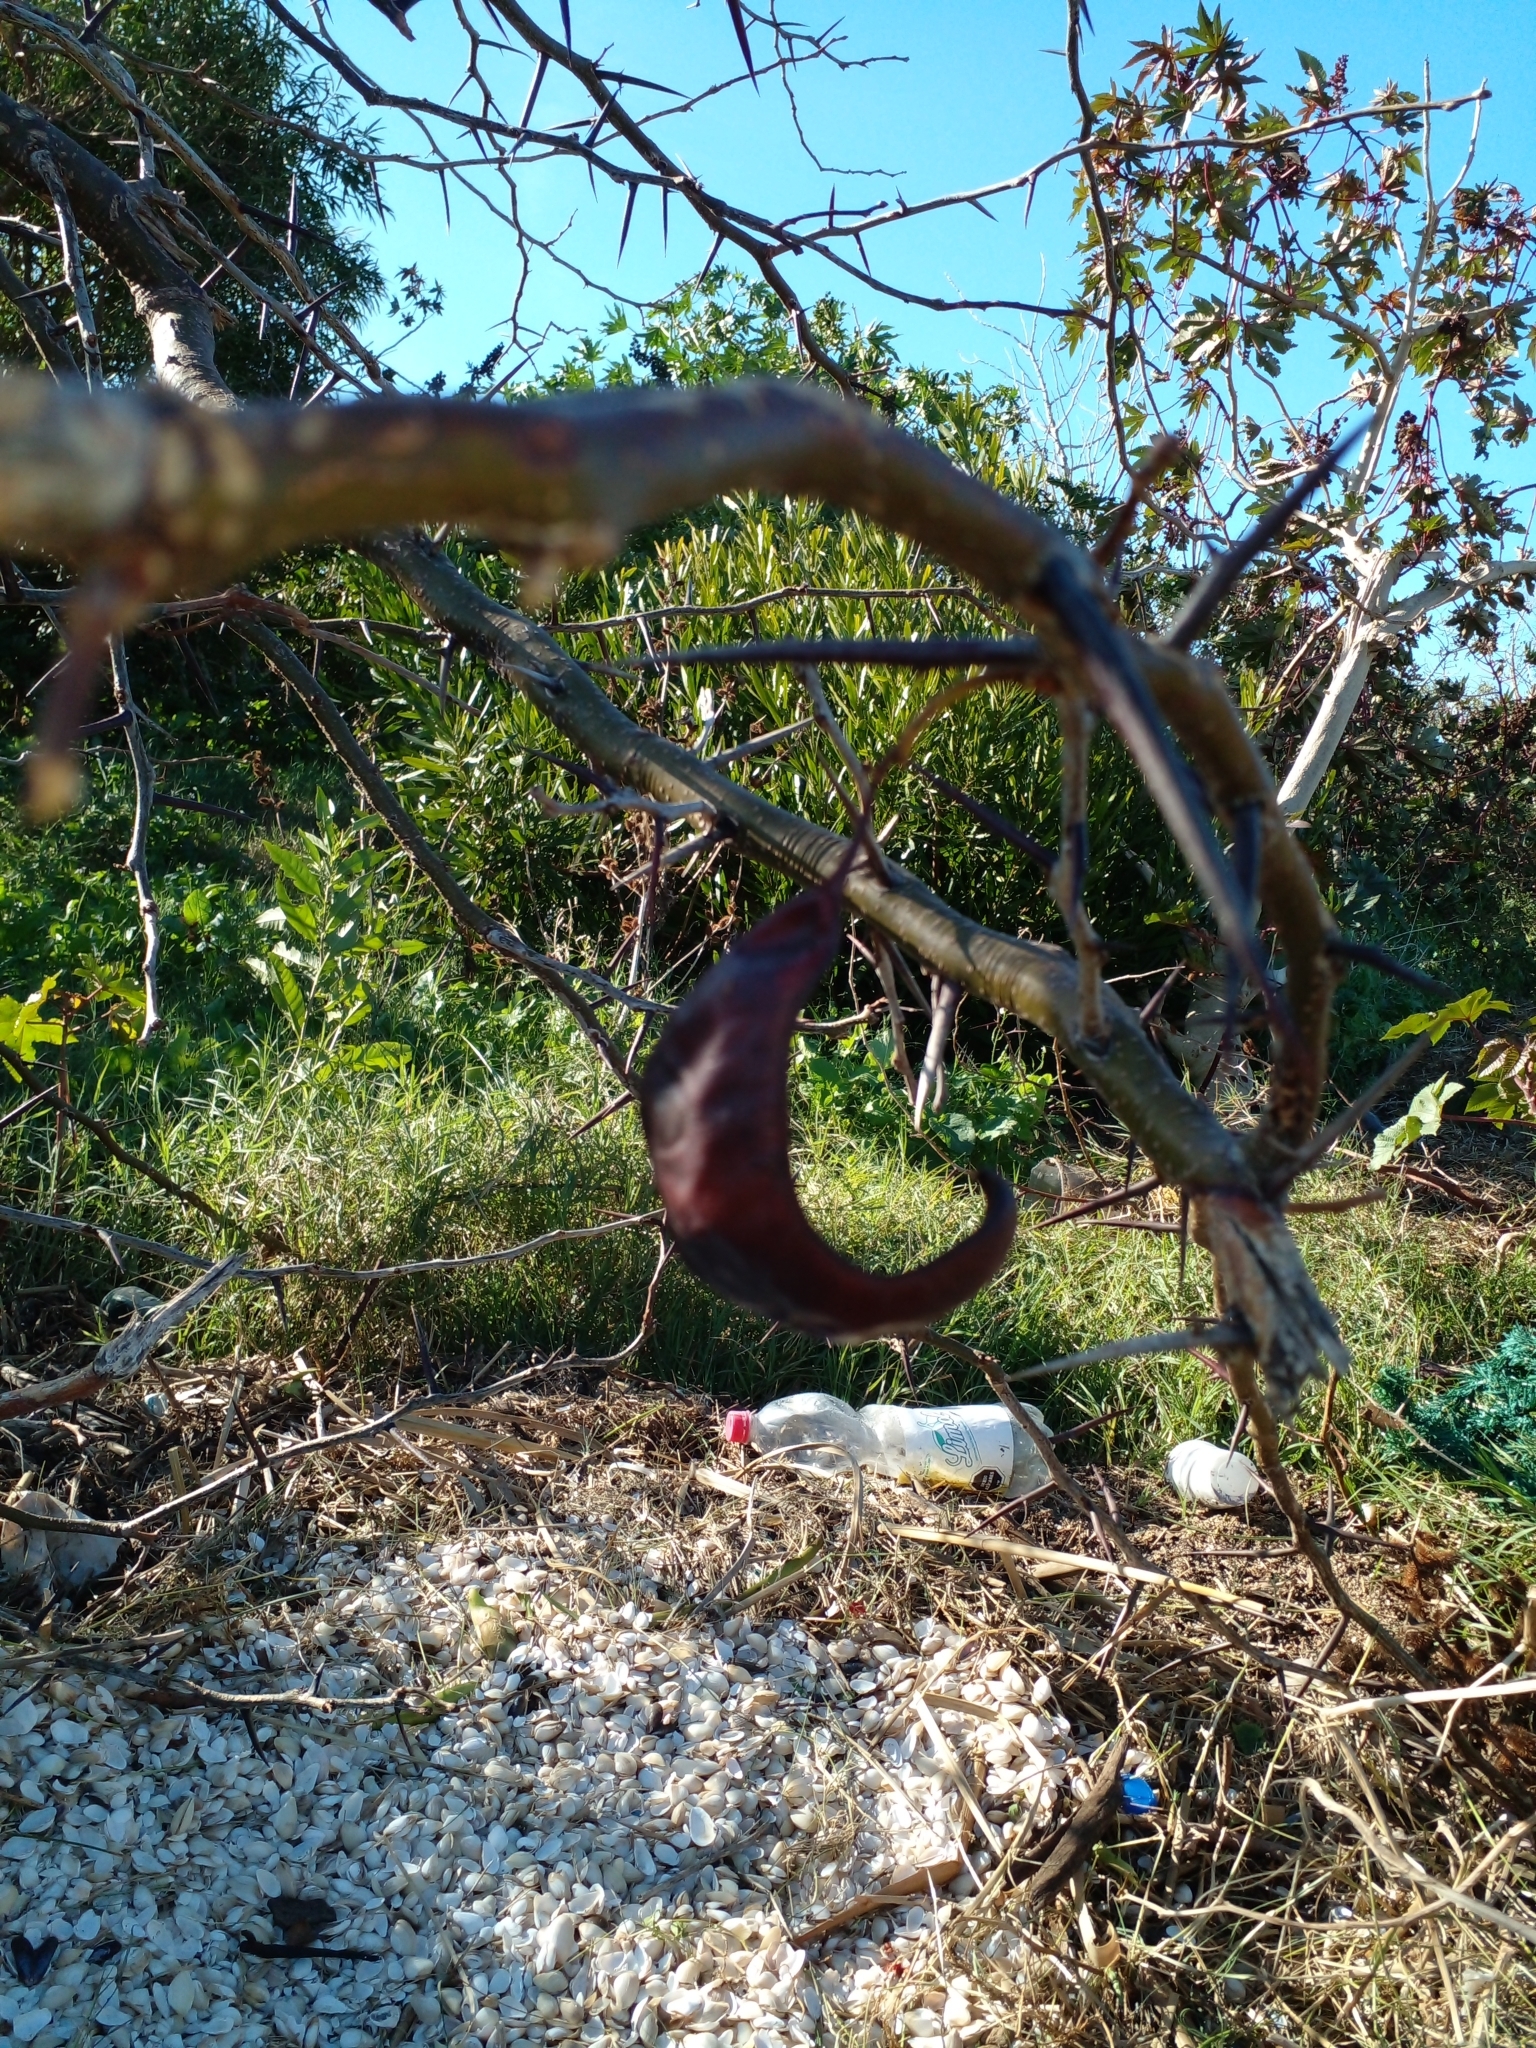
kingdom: Plantae
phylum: Tracheophyta
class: Magnoliopsida
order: Fabales
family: Fabaceae
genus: Gleditsia
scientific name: Gleditsia triacanthos
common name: Common honeylocust
